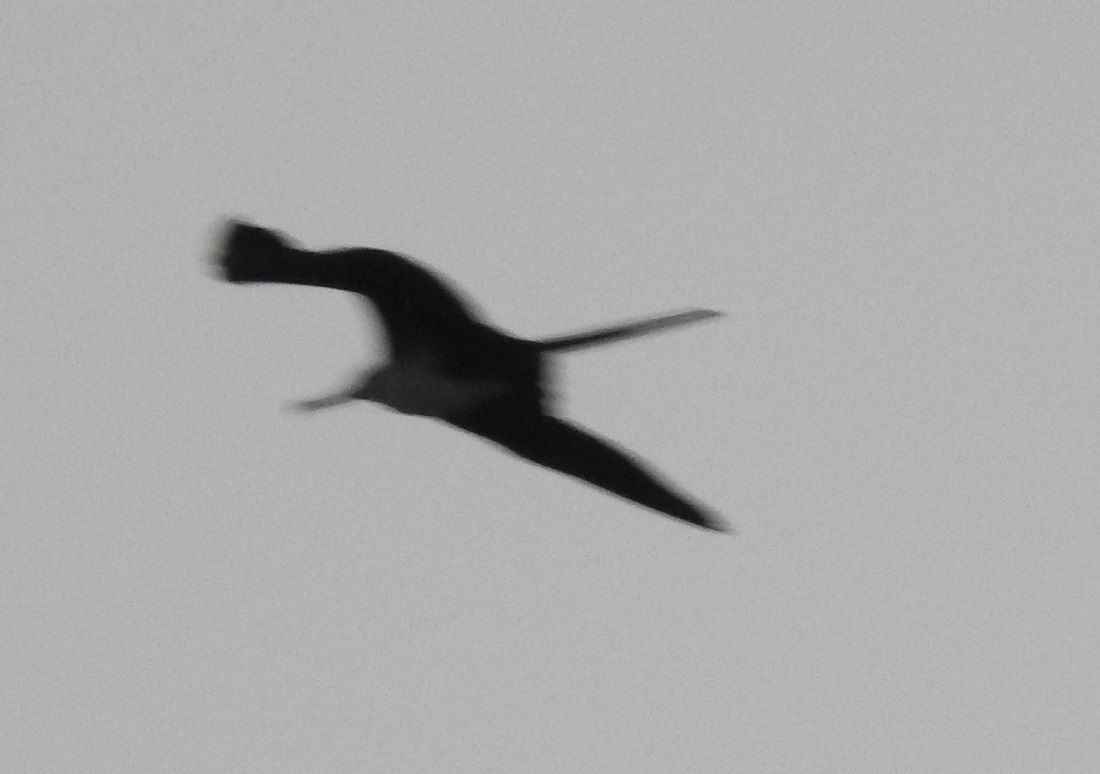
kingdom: Animalia
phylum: Chordata
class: Aves
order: Suliformes
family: Fregatidae
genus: Fregata
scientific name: Fregata magnificens
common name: Magnificent frigatebird
